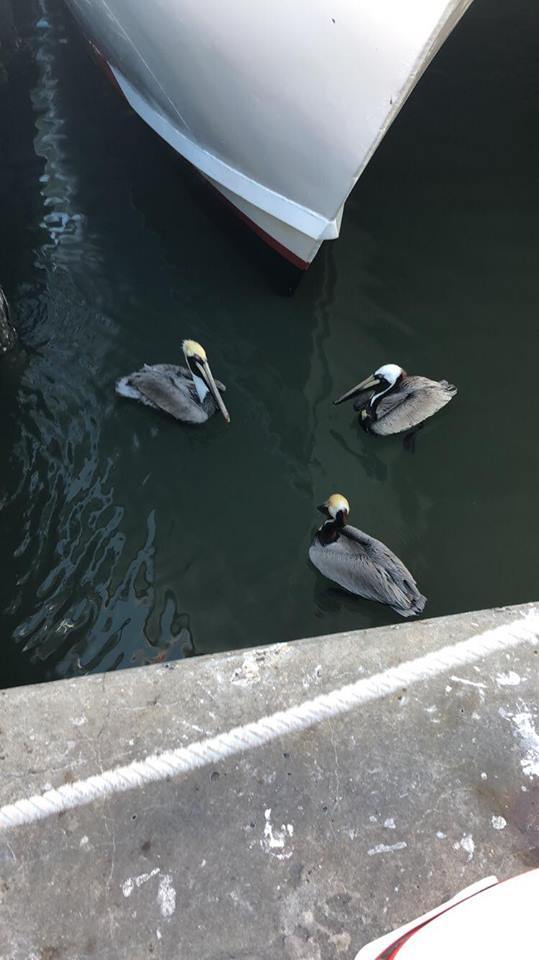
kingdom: Animalia
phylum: Chordata
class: Aves
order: Pelecaniformes
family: Pelecanidae
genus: Pelecanus
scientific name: Pelecanus occidentalis
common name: Brown pelican
